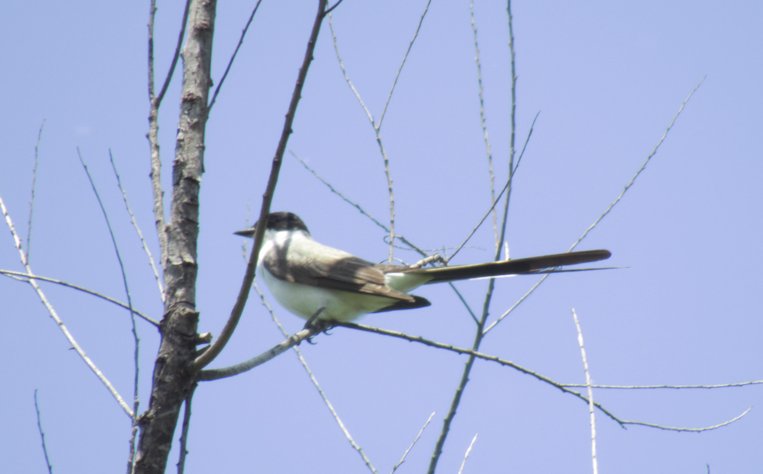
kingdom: Animalia
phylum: Chordata
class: Aves
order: Passeriformes
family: Tyrannidae
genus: Tyrannus
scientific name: Tyrannus savana
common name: Fork-tailed flycatcher
